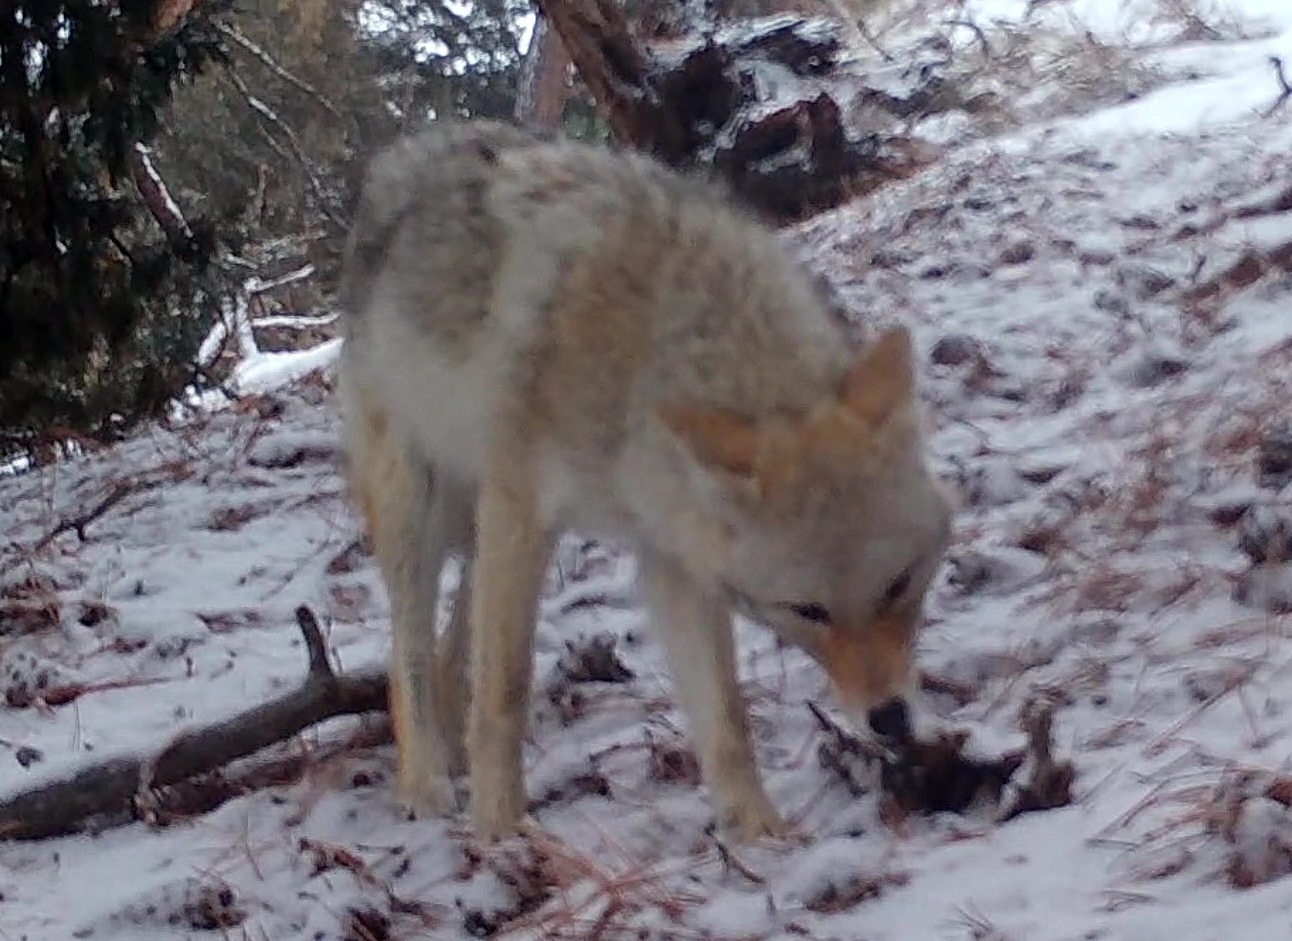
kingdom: Animalia
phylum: Chordata
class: Mammalia
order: Carnivora
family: Canidae
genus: Canis
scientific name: Canis latrans
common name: Coyote
